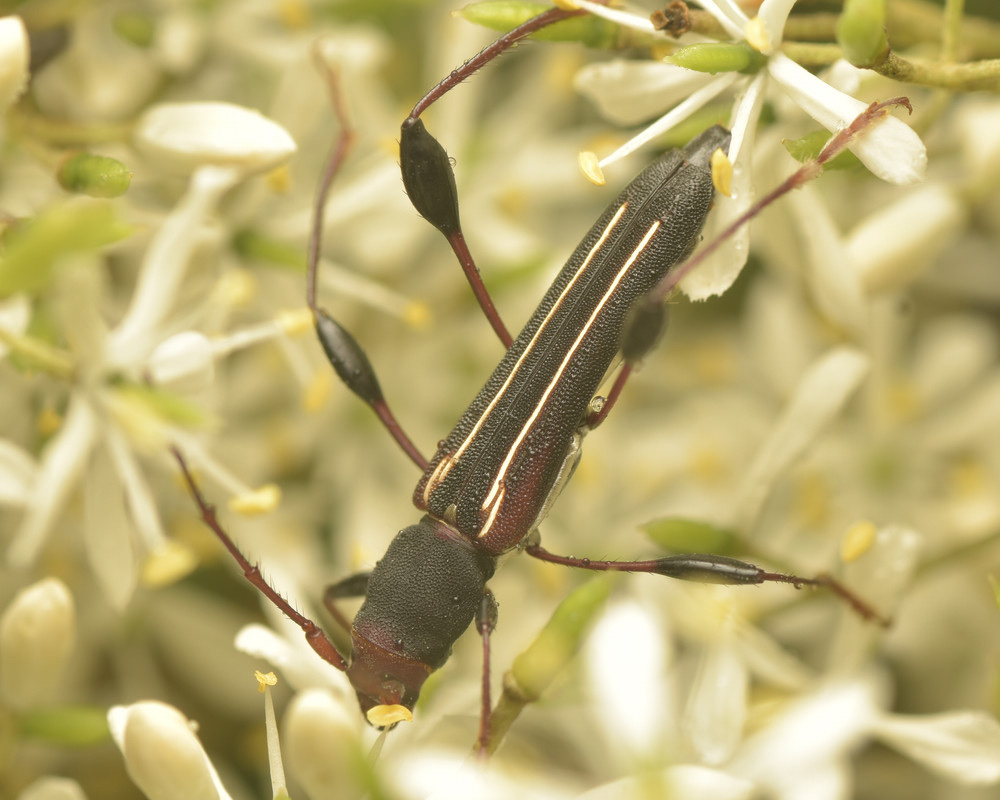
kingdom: Animalia
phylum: Arthropoda
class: Insecta
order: Coleoptera
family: Cerambycidae
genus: Amphirhoe
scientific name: Amphirhoe sloanei
